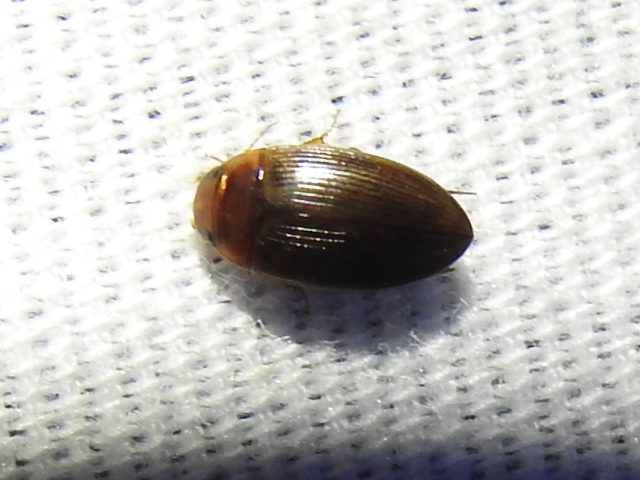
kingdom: Animalia
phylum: Arthropoda
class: Insecta
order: Coleoptera
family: Dytiscidae
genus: Copelatus
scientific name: Copelatus glyphicus
